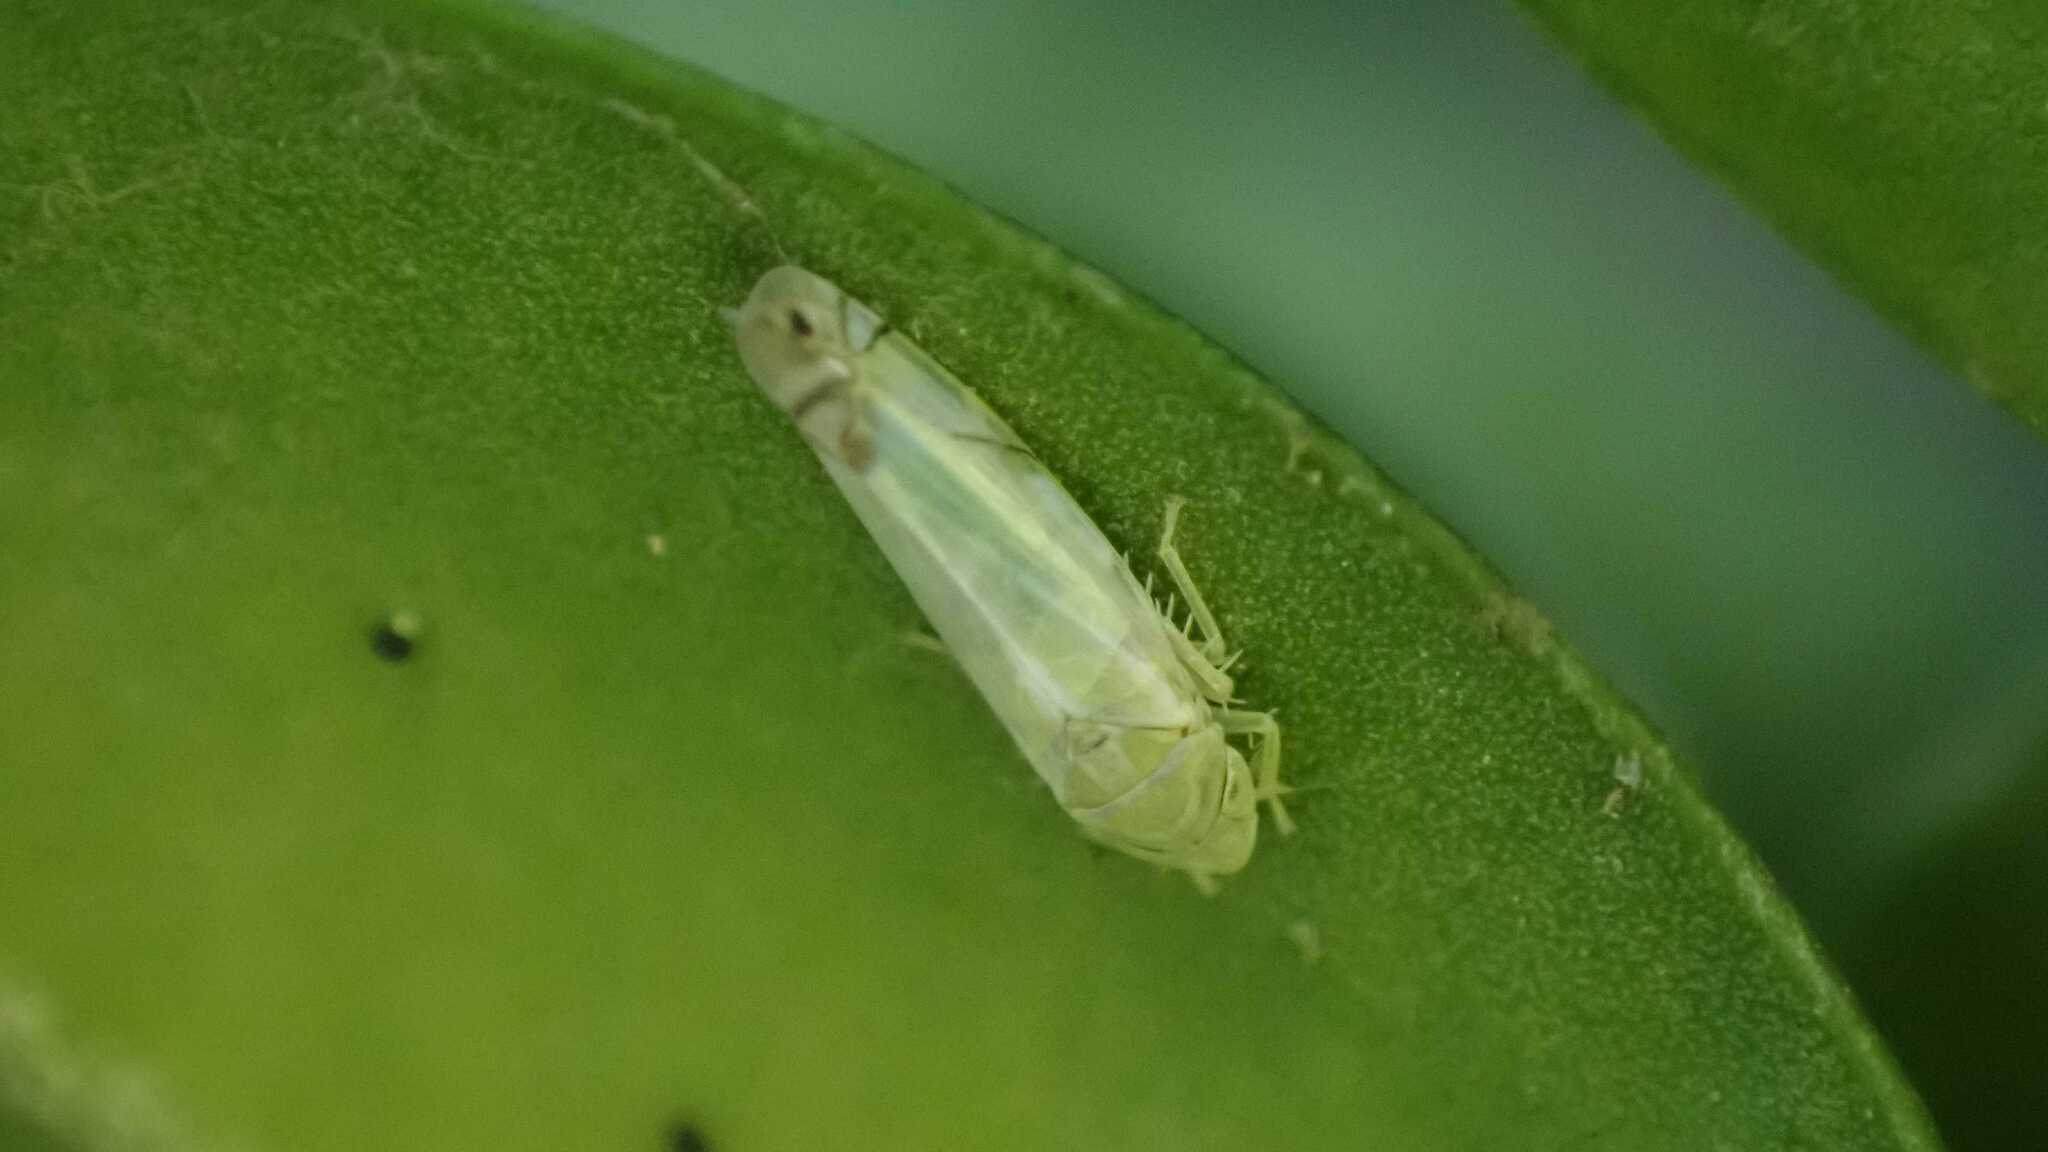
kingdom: Animalia
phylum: Arthropoda
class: Insecta
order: Hemiptera
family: Cicadellidae
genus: Zyginella
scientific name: Zyginella pulchra
